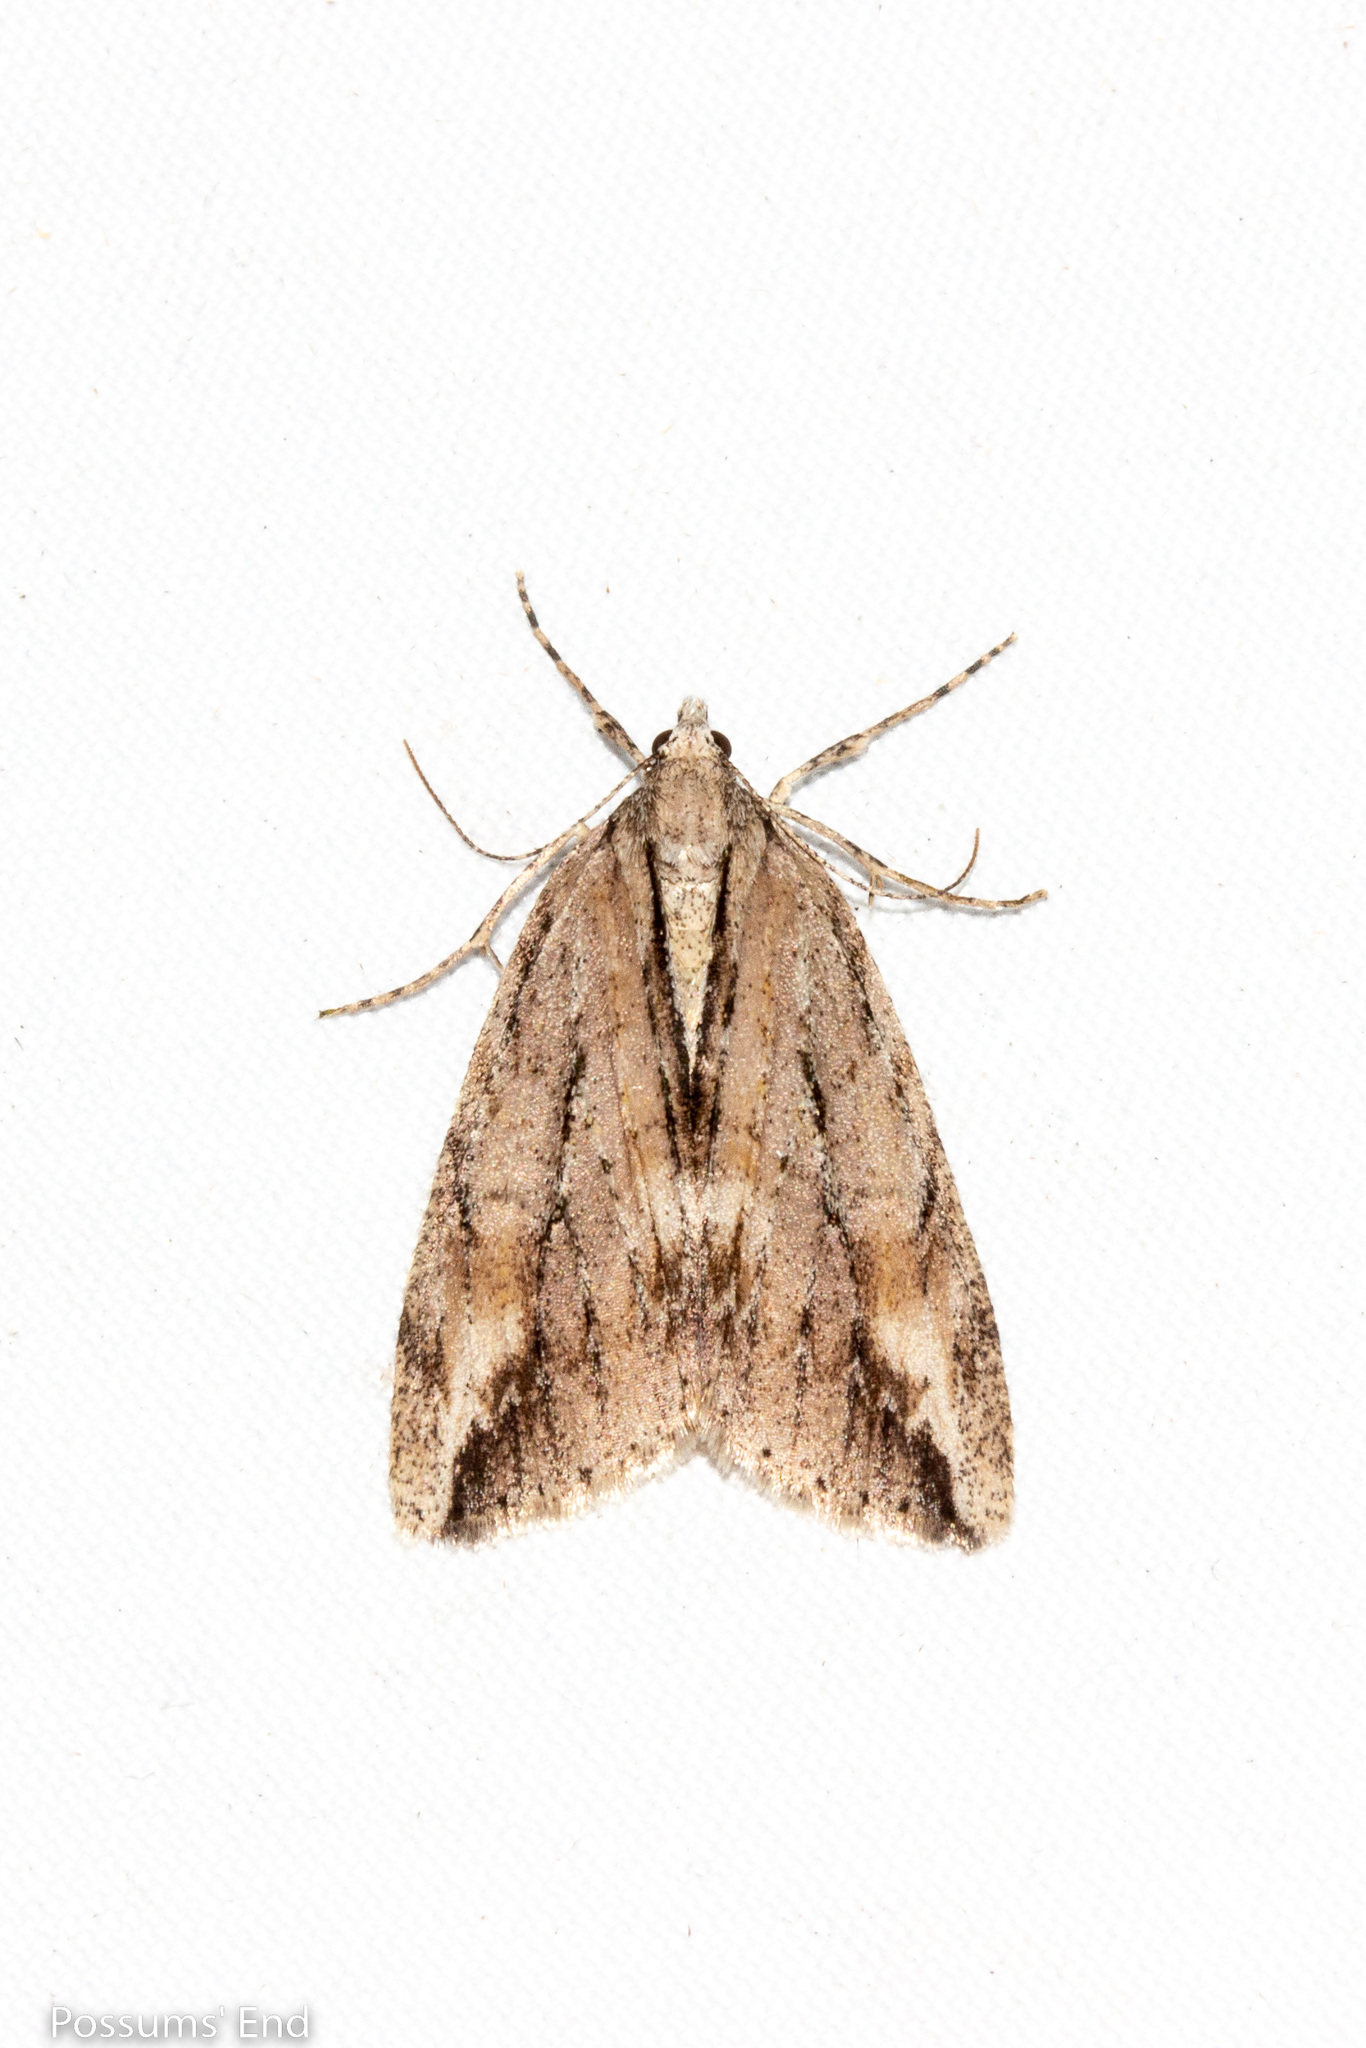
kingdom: Animalia
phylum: Arthropoda
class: Insecta
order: Lepidoptera
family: Geometridae
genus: Pseudocoremia
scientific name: Pseudocoremia lupinata
